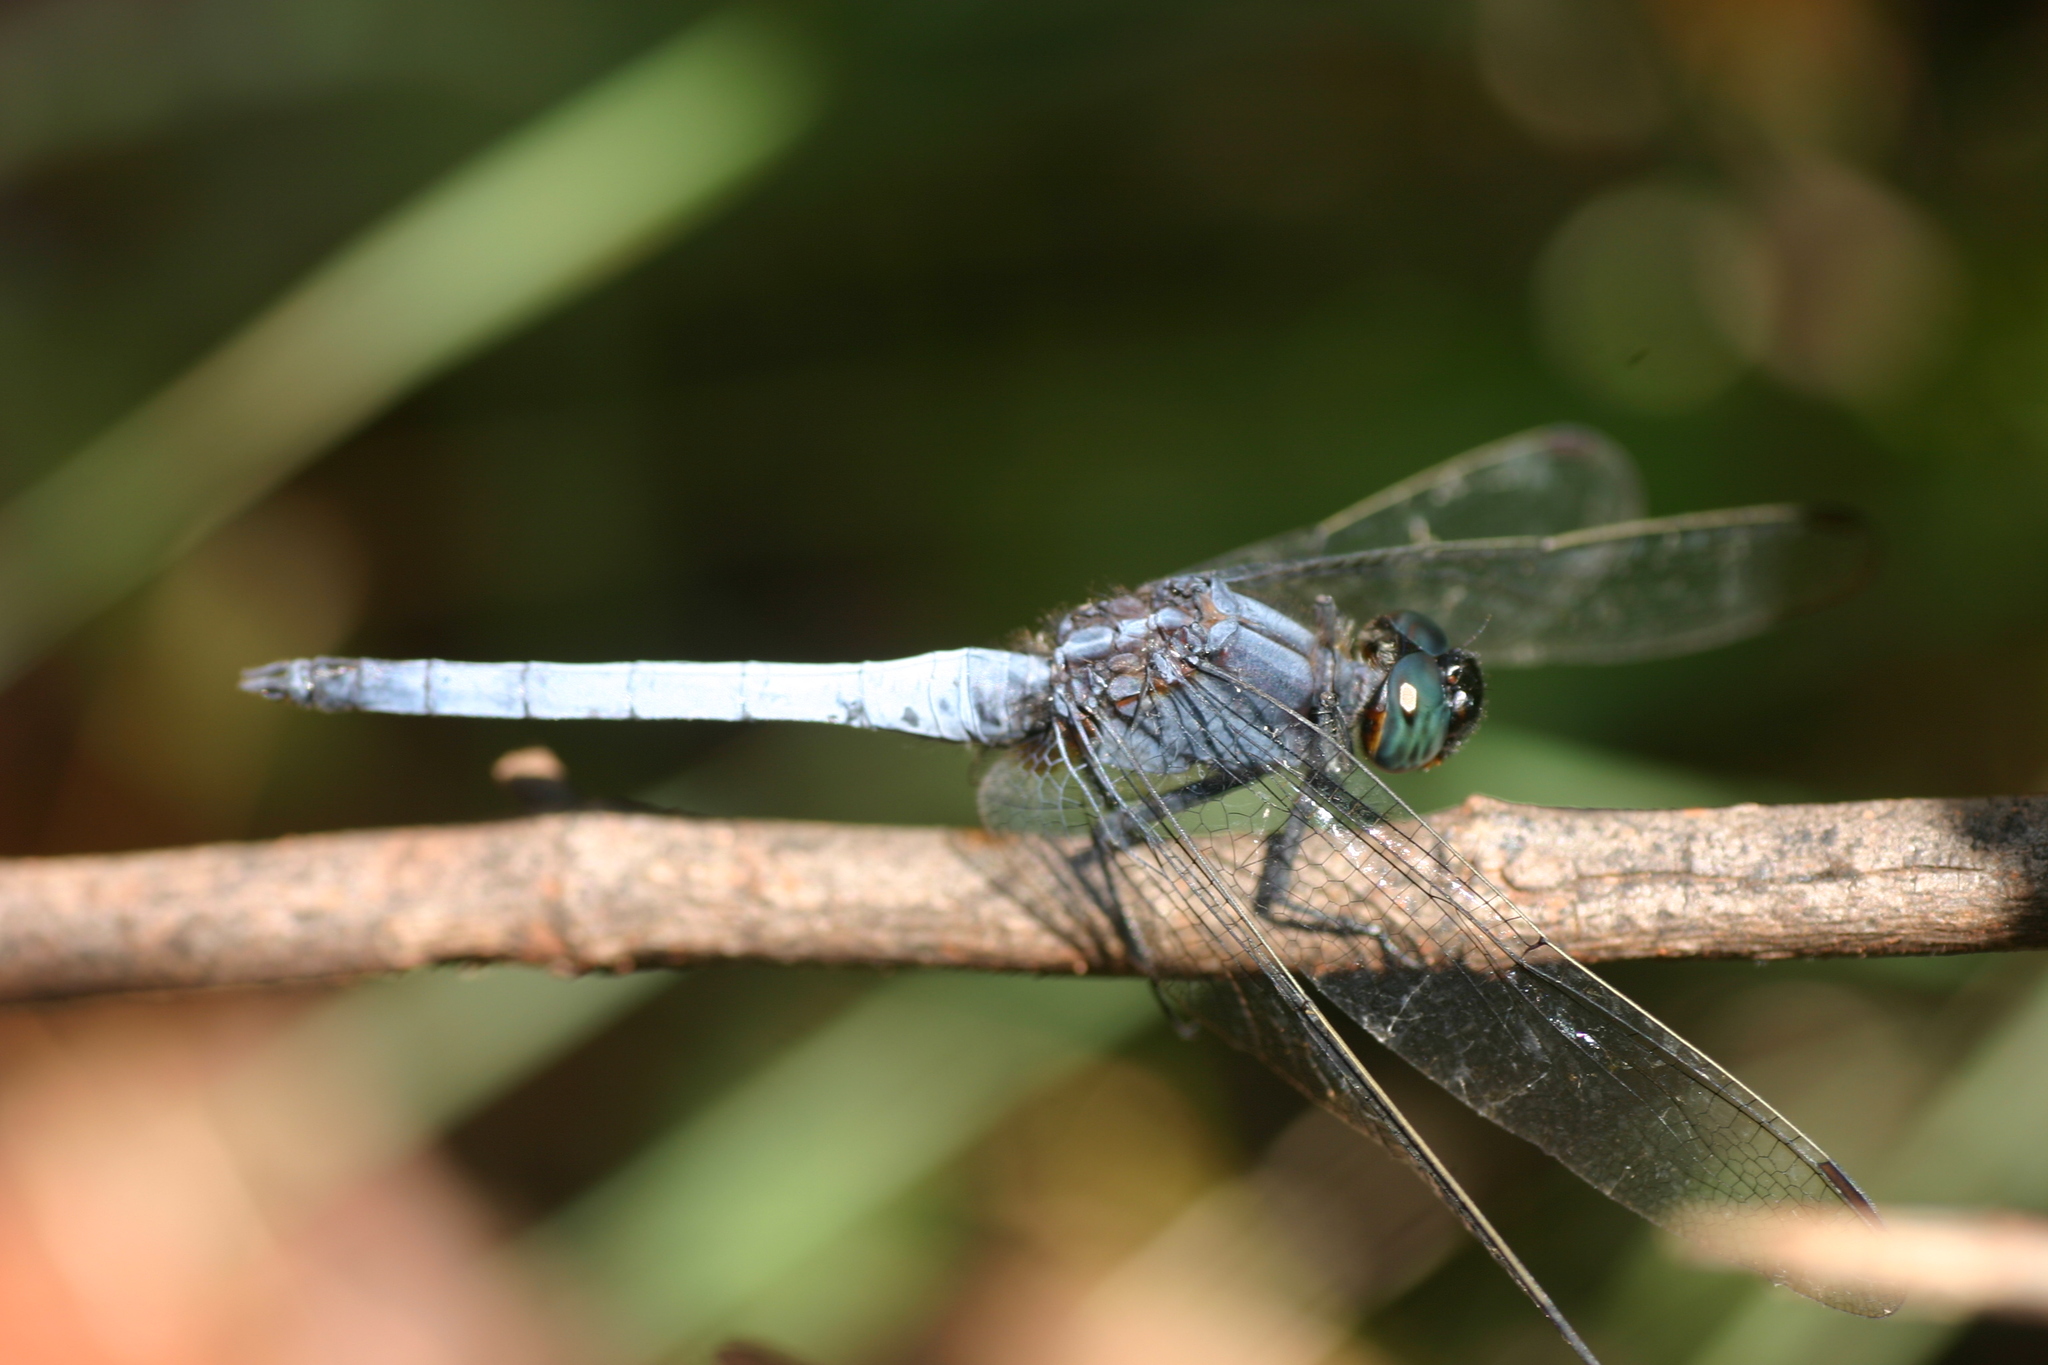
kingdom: Animalia
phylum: Arthropoda
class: Insecta
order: Odonata
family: Libellulidae
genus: Orthetrum
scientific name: Orthetrum glaucum
